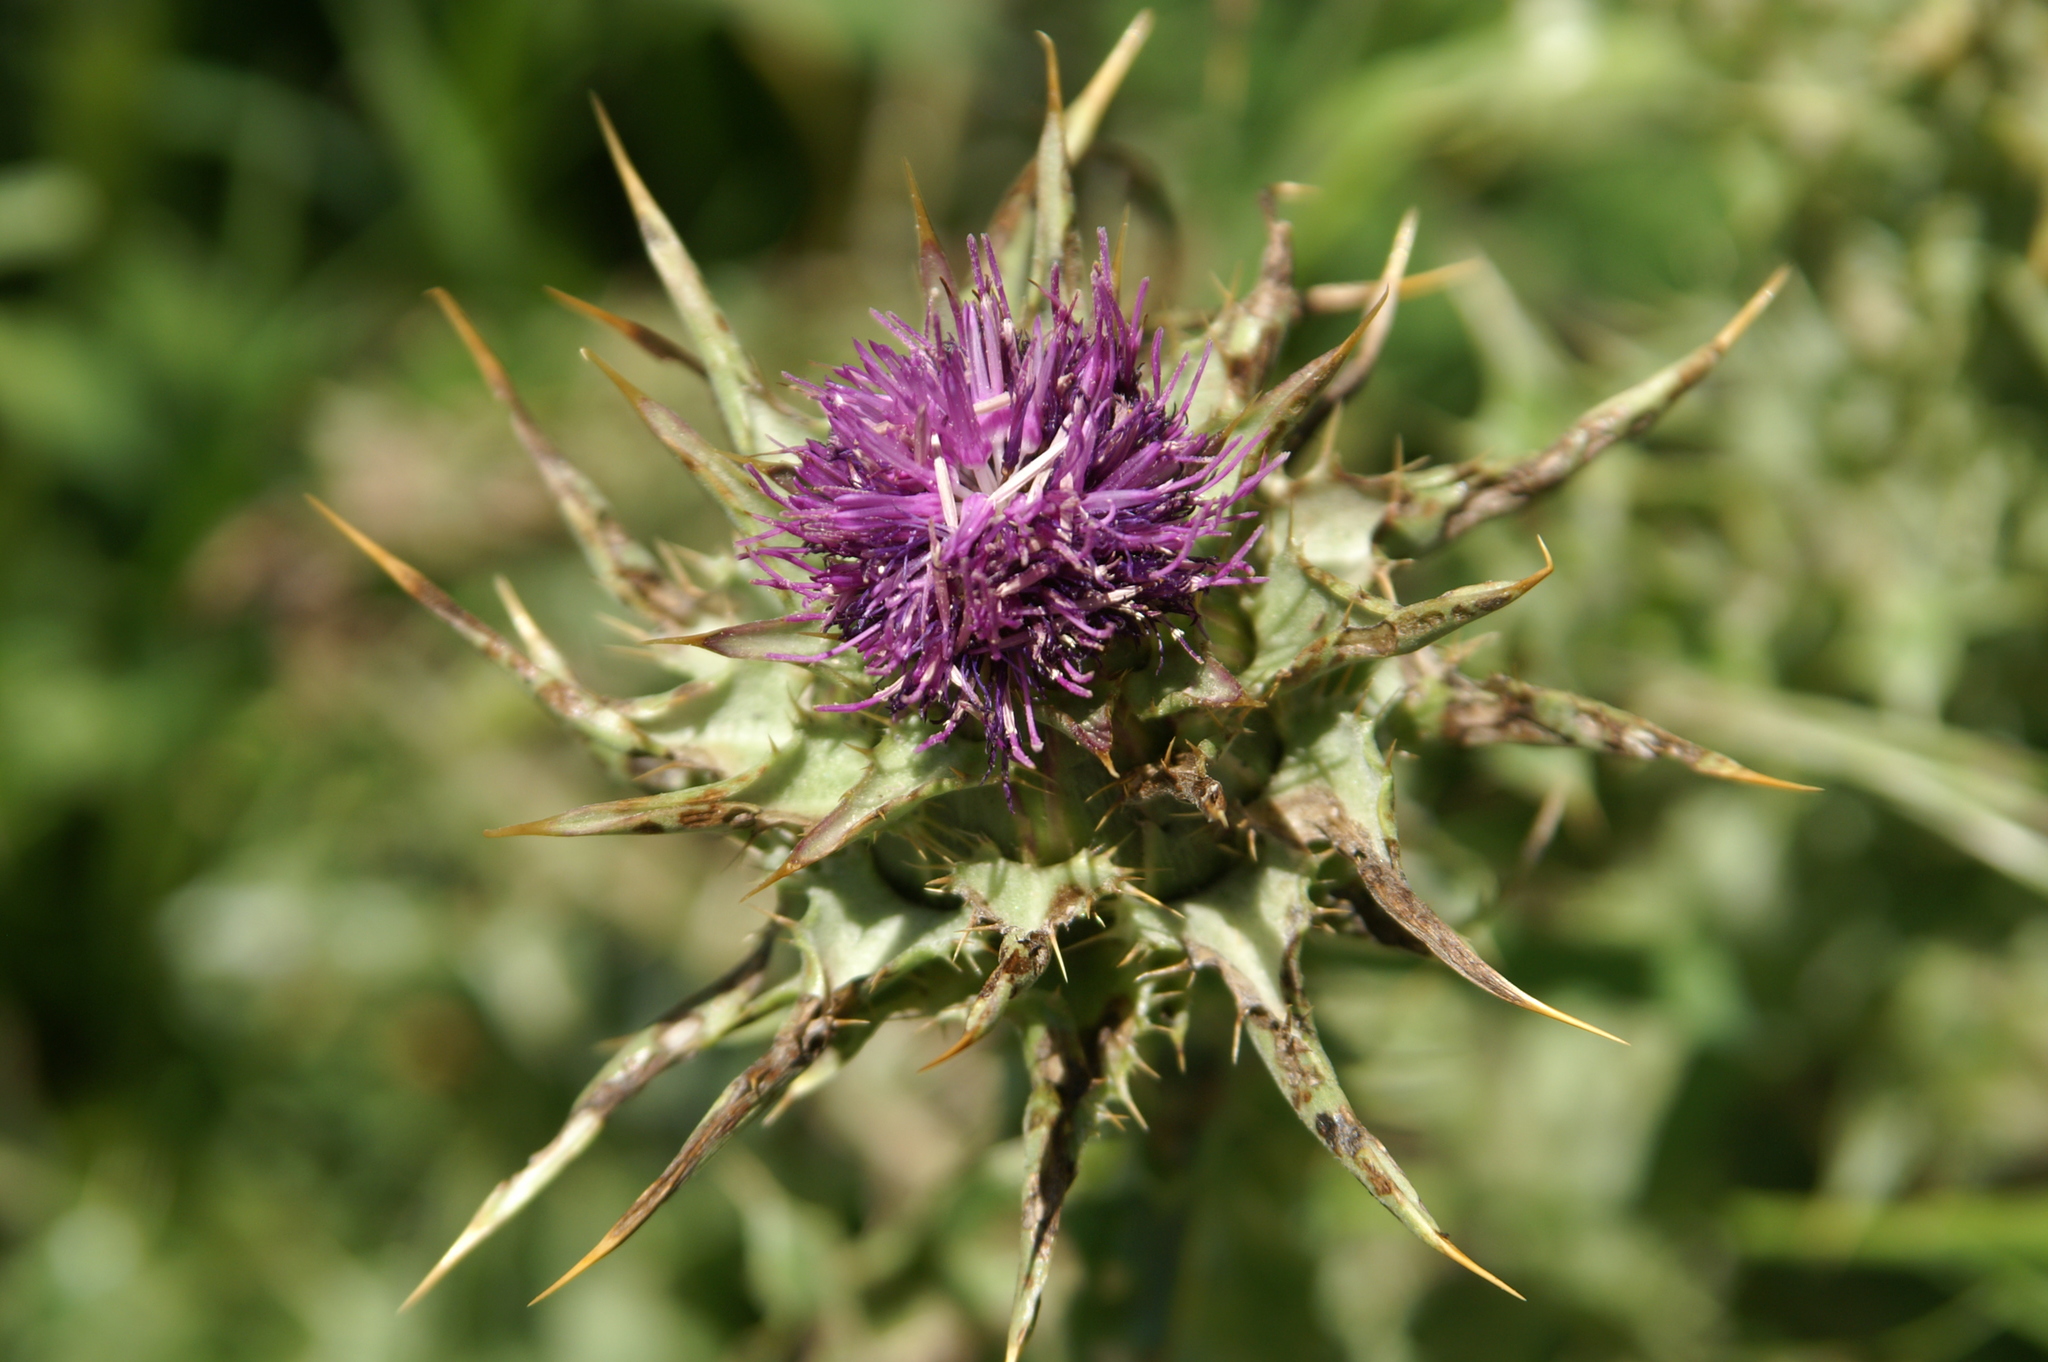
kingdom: Plantae
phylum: Tracheophyta
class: Magnoliopsida
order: Asterales
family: Asteraceae
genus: Silybum
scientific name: Silybum marianum
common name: Milk thistle
